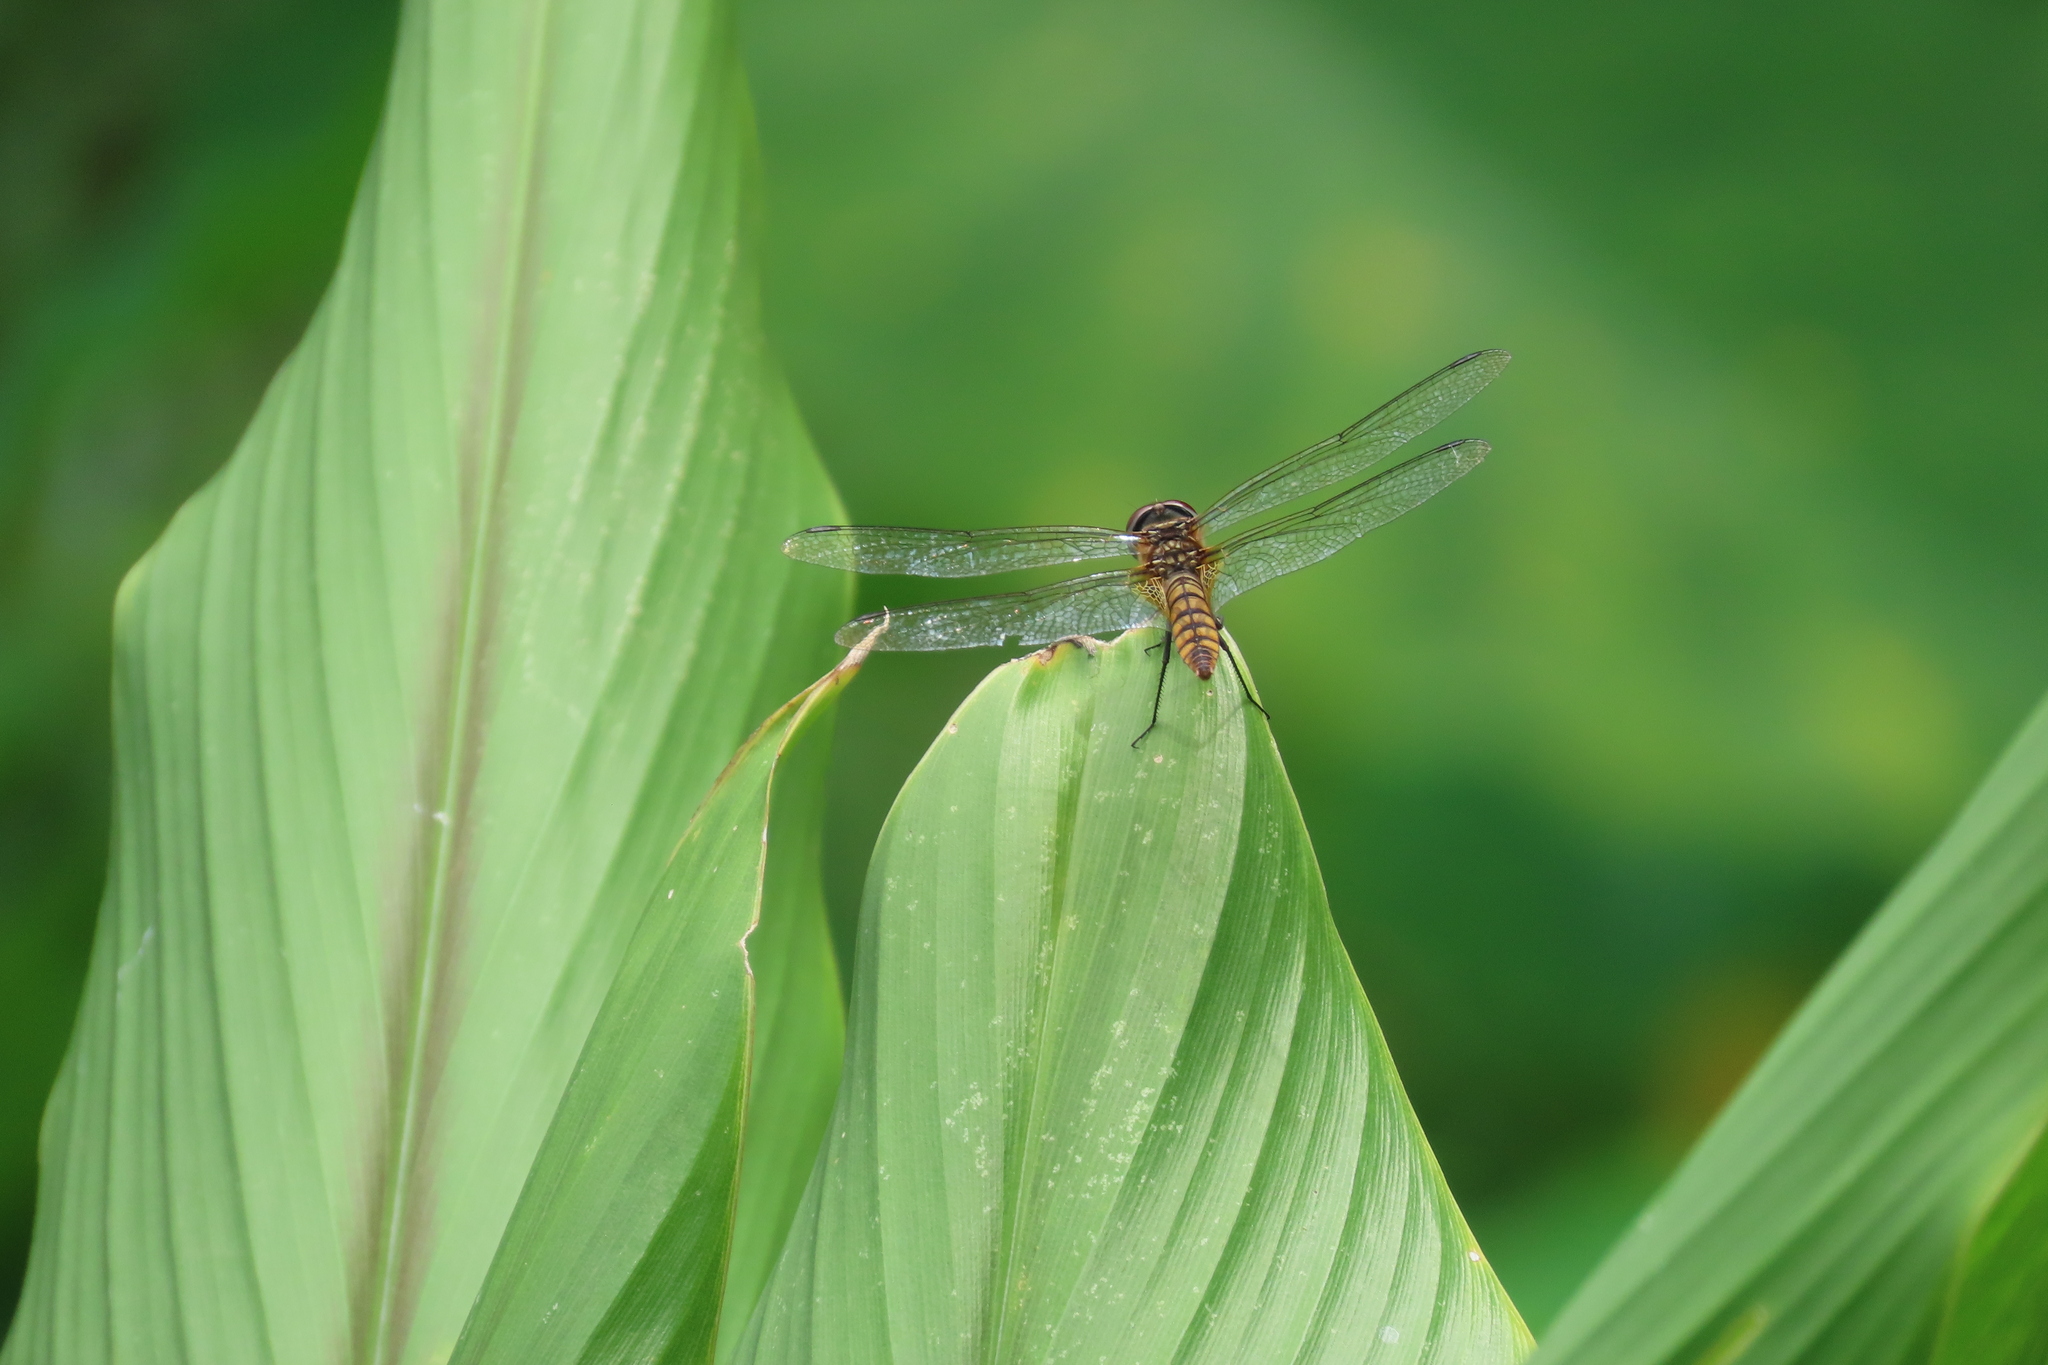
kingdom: Animalia
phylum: Arthropoda
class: Insecta
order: Odonata
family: Libellulidae
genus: Urothemis
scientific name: Urothemis signata
